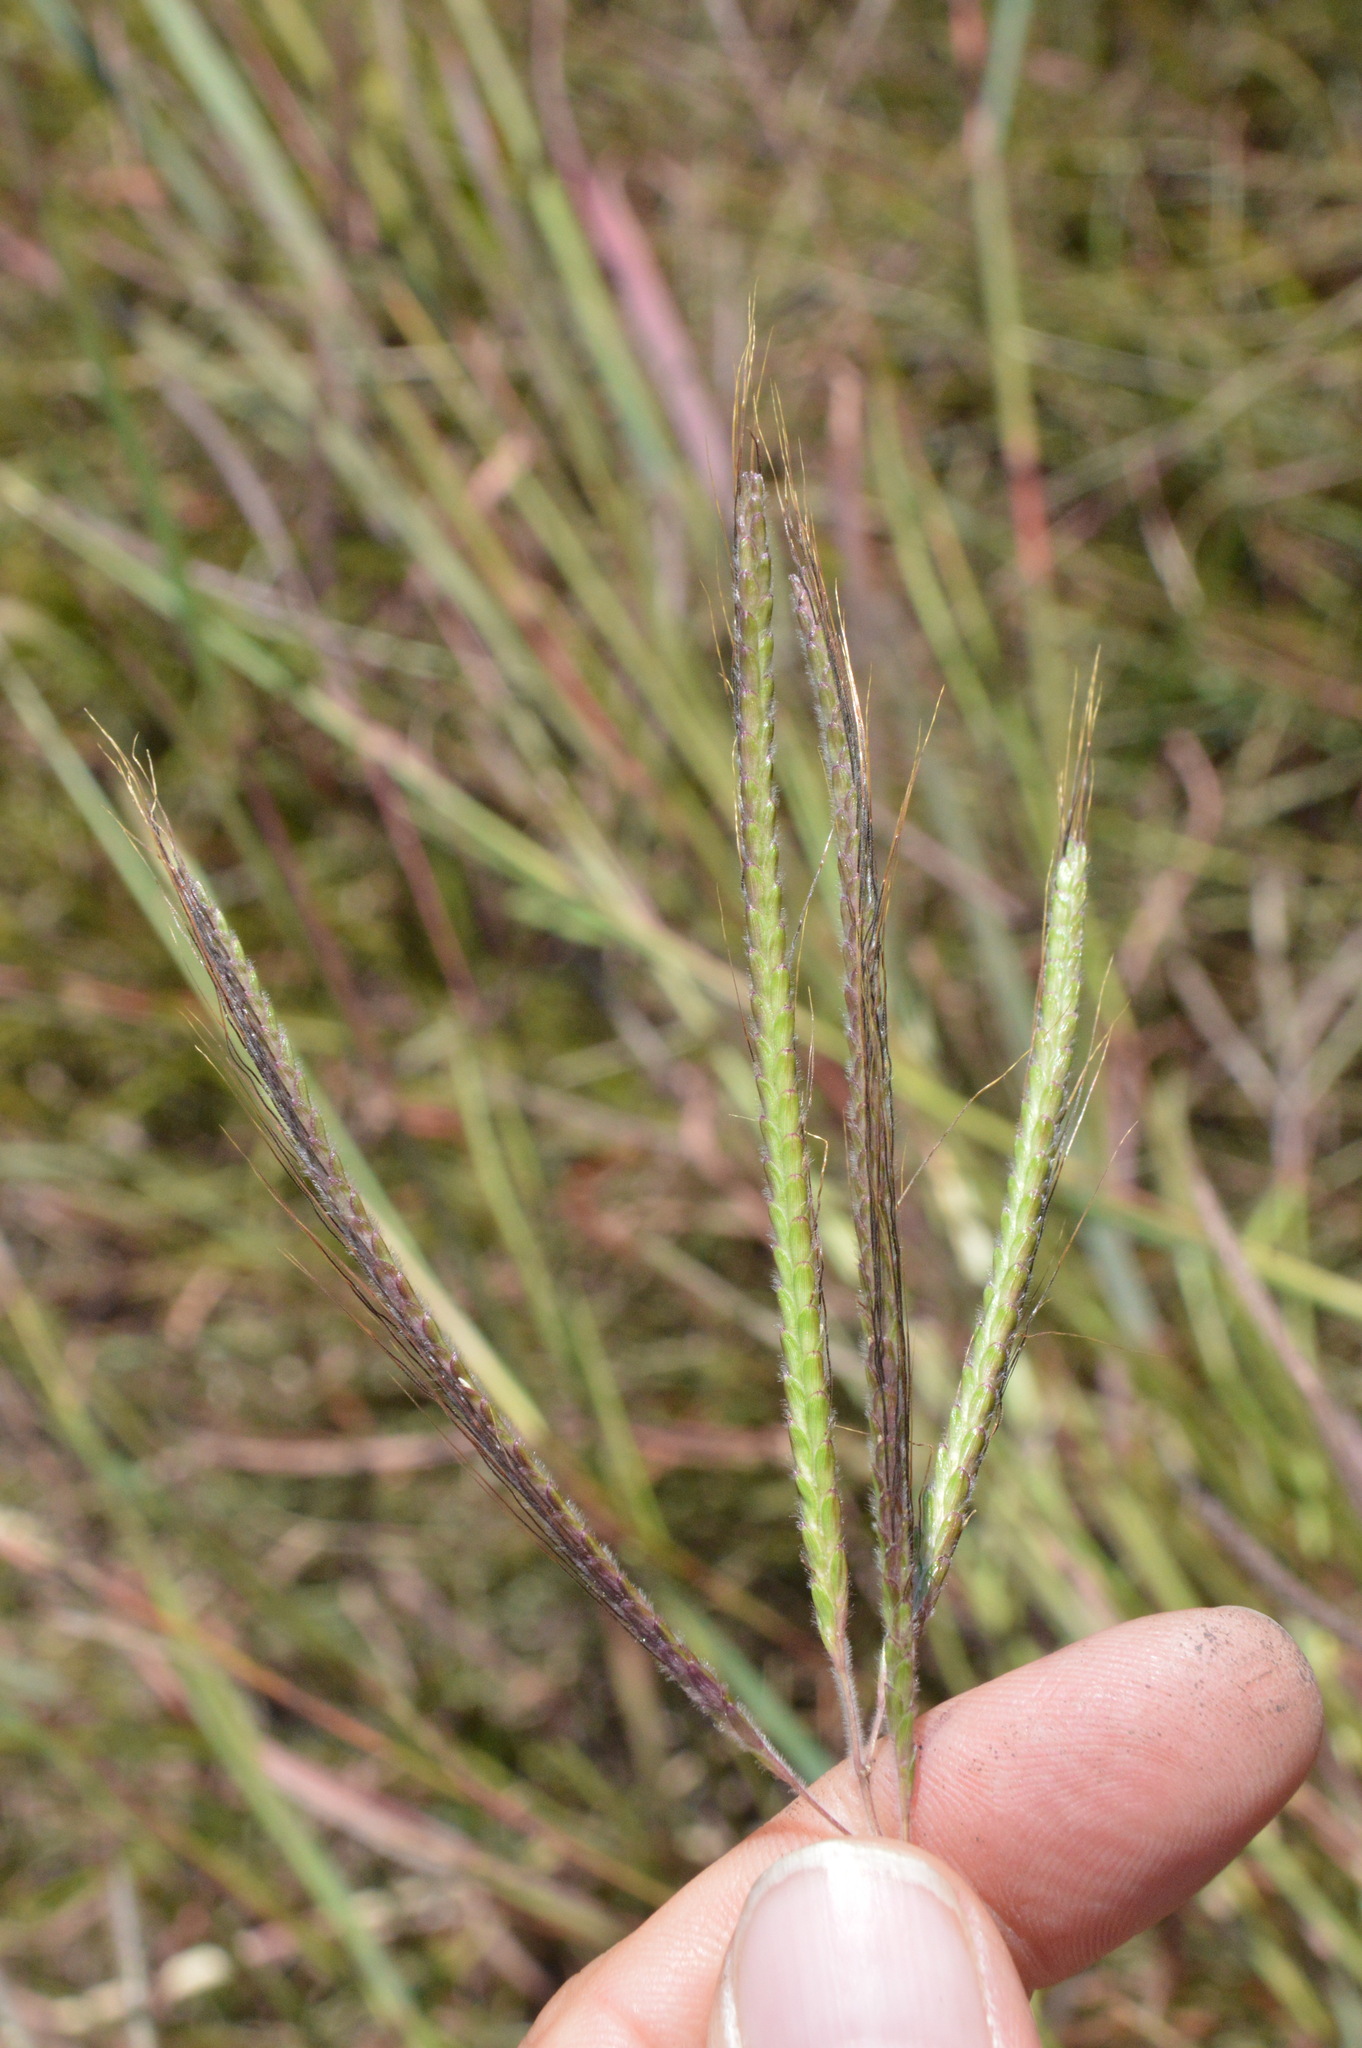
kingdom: Plantae
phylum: Tracheophyta
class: Liliopsida
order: Poales
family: Poaceae
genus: Dichanthium
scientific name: Dichanthium aristatum
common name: Angleton bluestem
